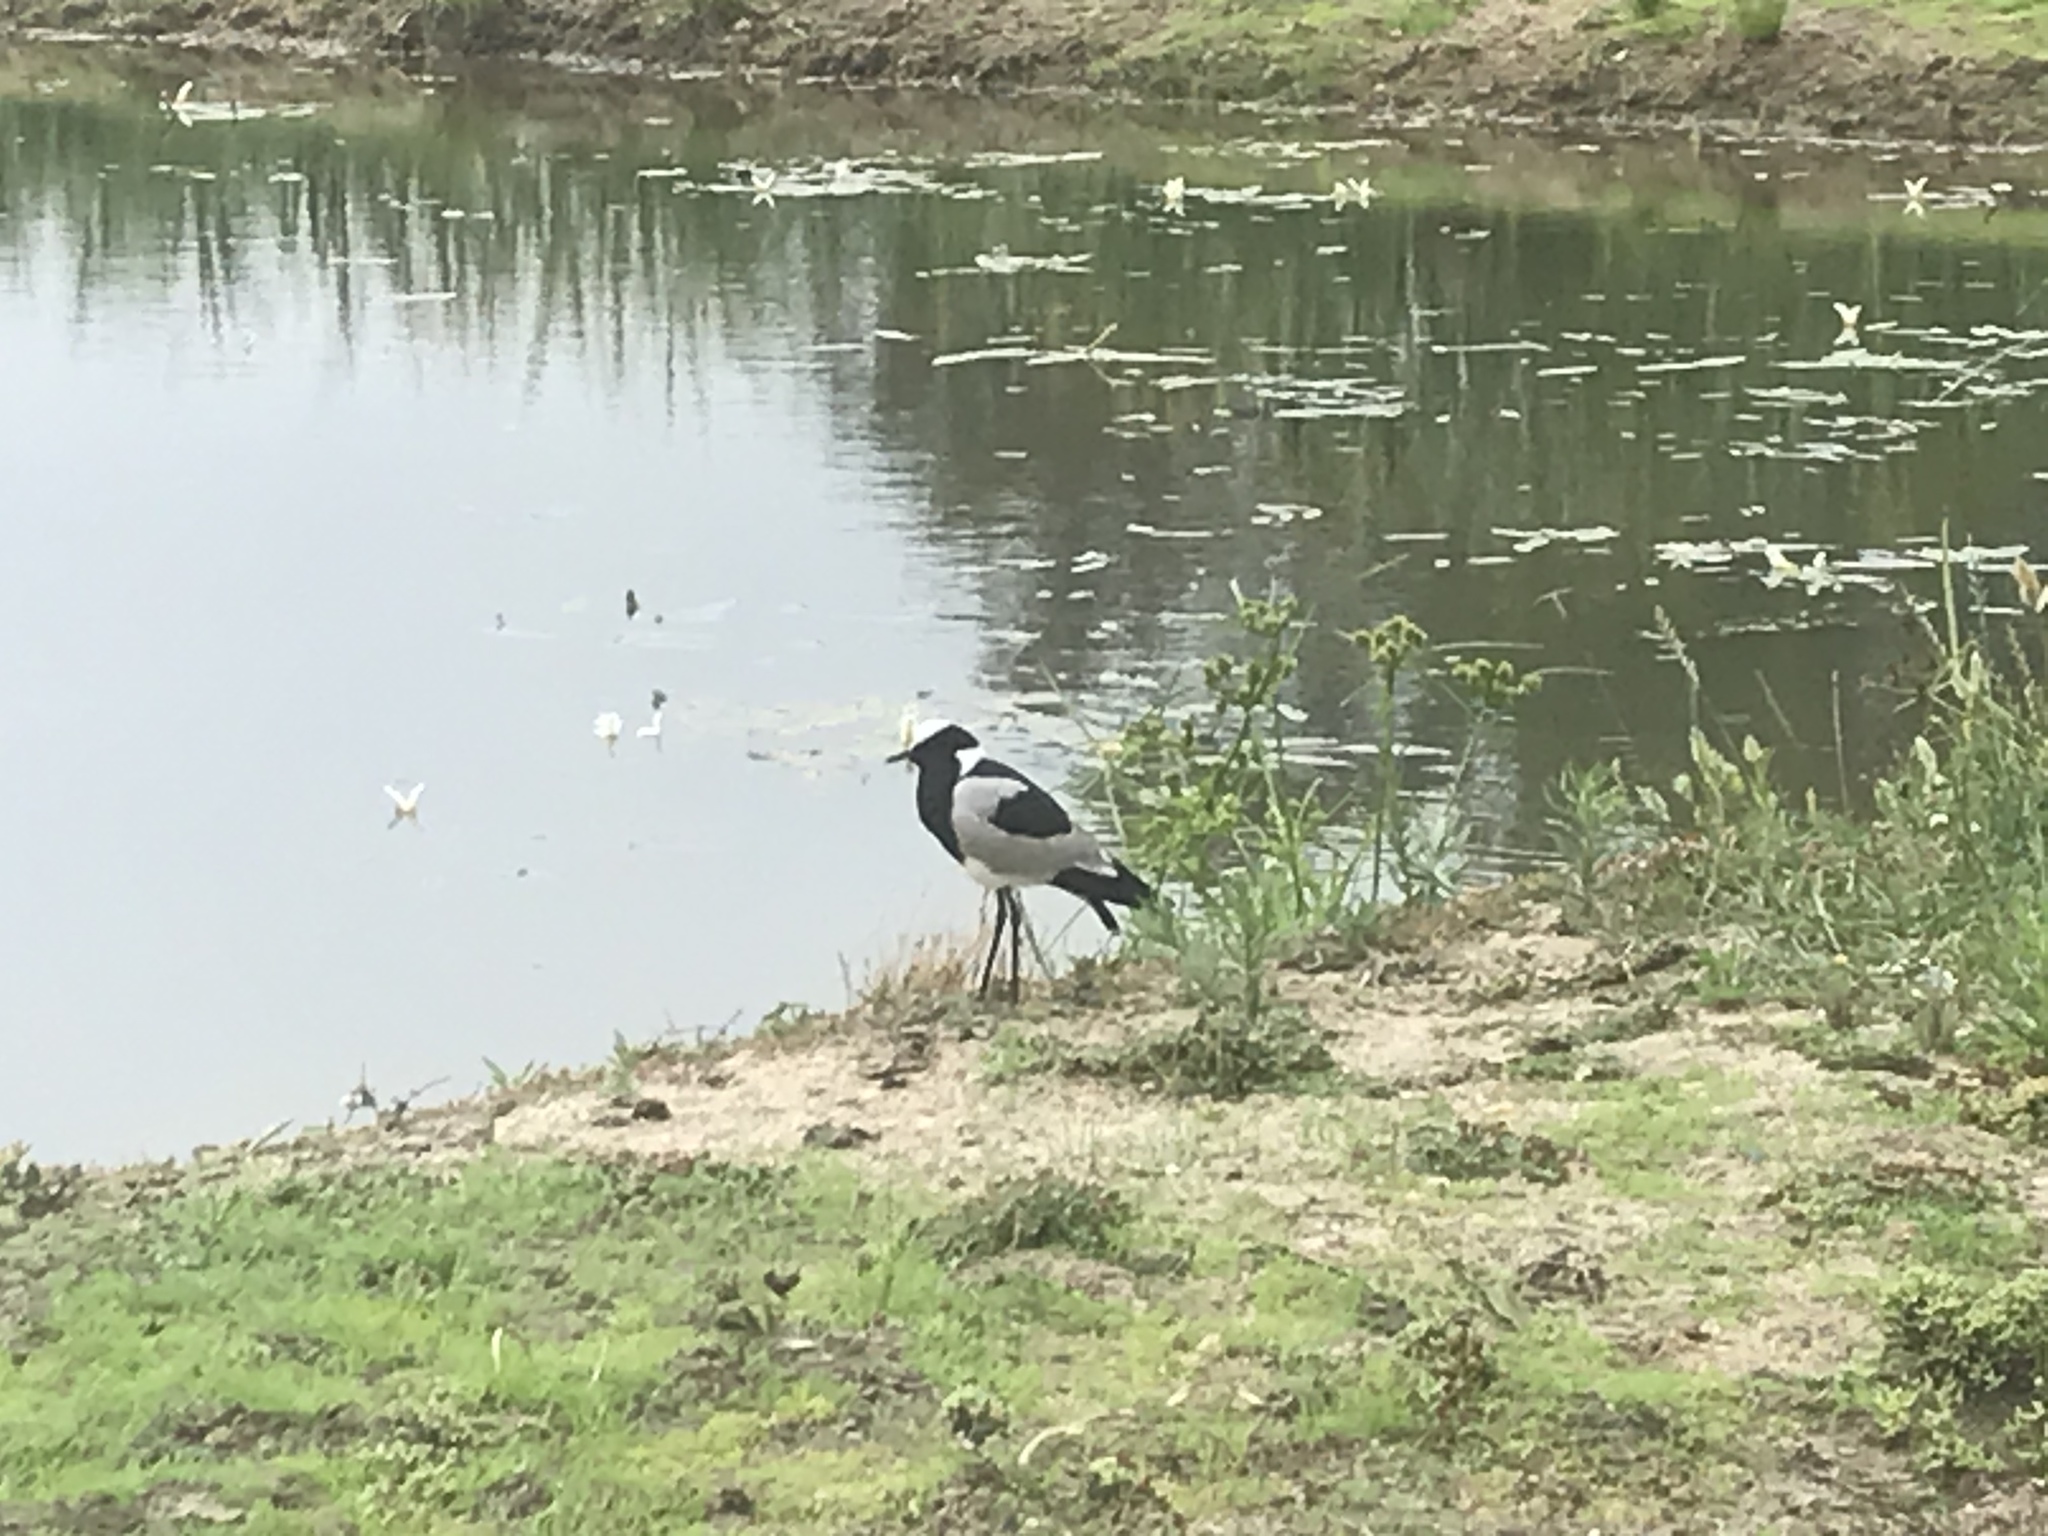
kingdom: Animalia
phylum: Chordata
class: Aves
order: Charadriiformes
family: Charadriidae
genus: Vanellus
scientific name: Vanellus armatus
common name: Blacksmith lapwing
